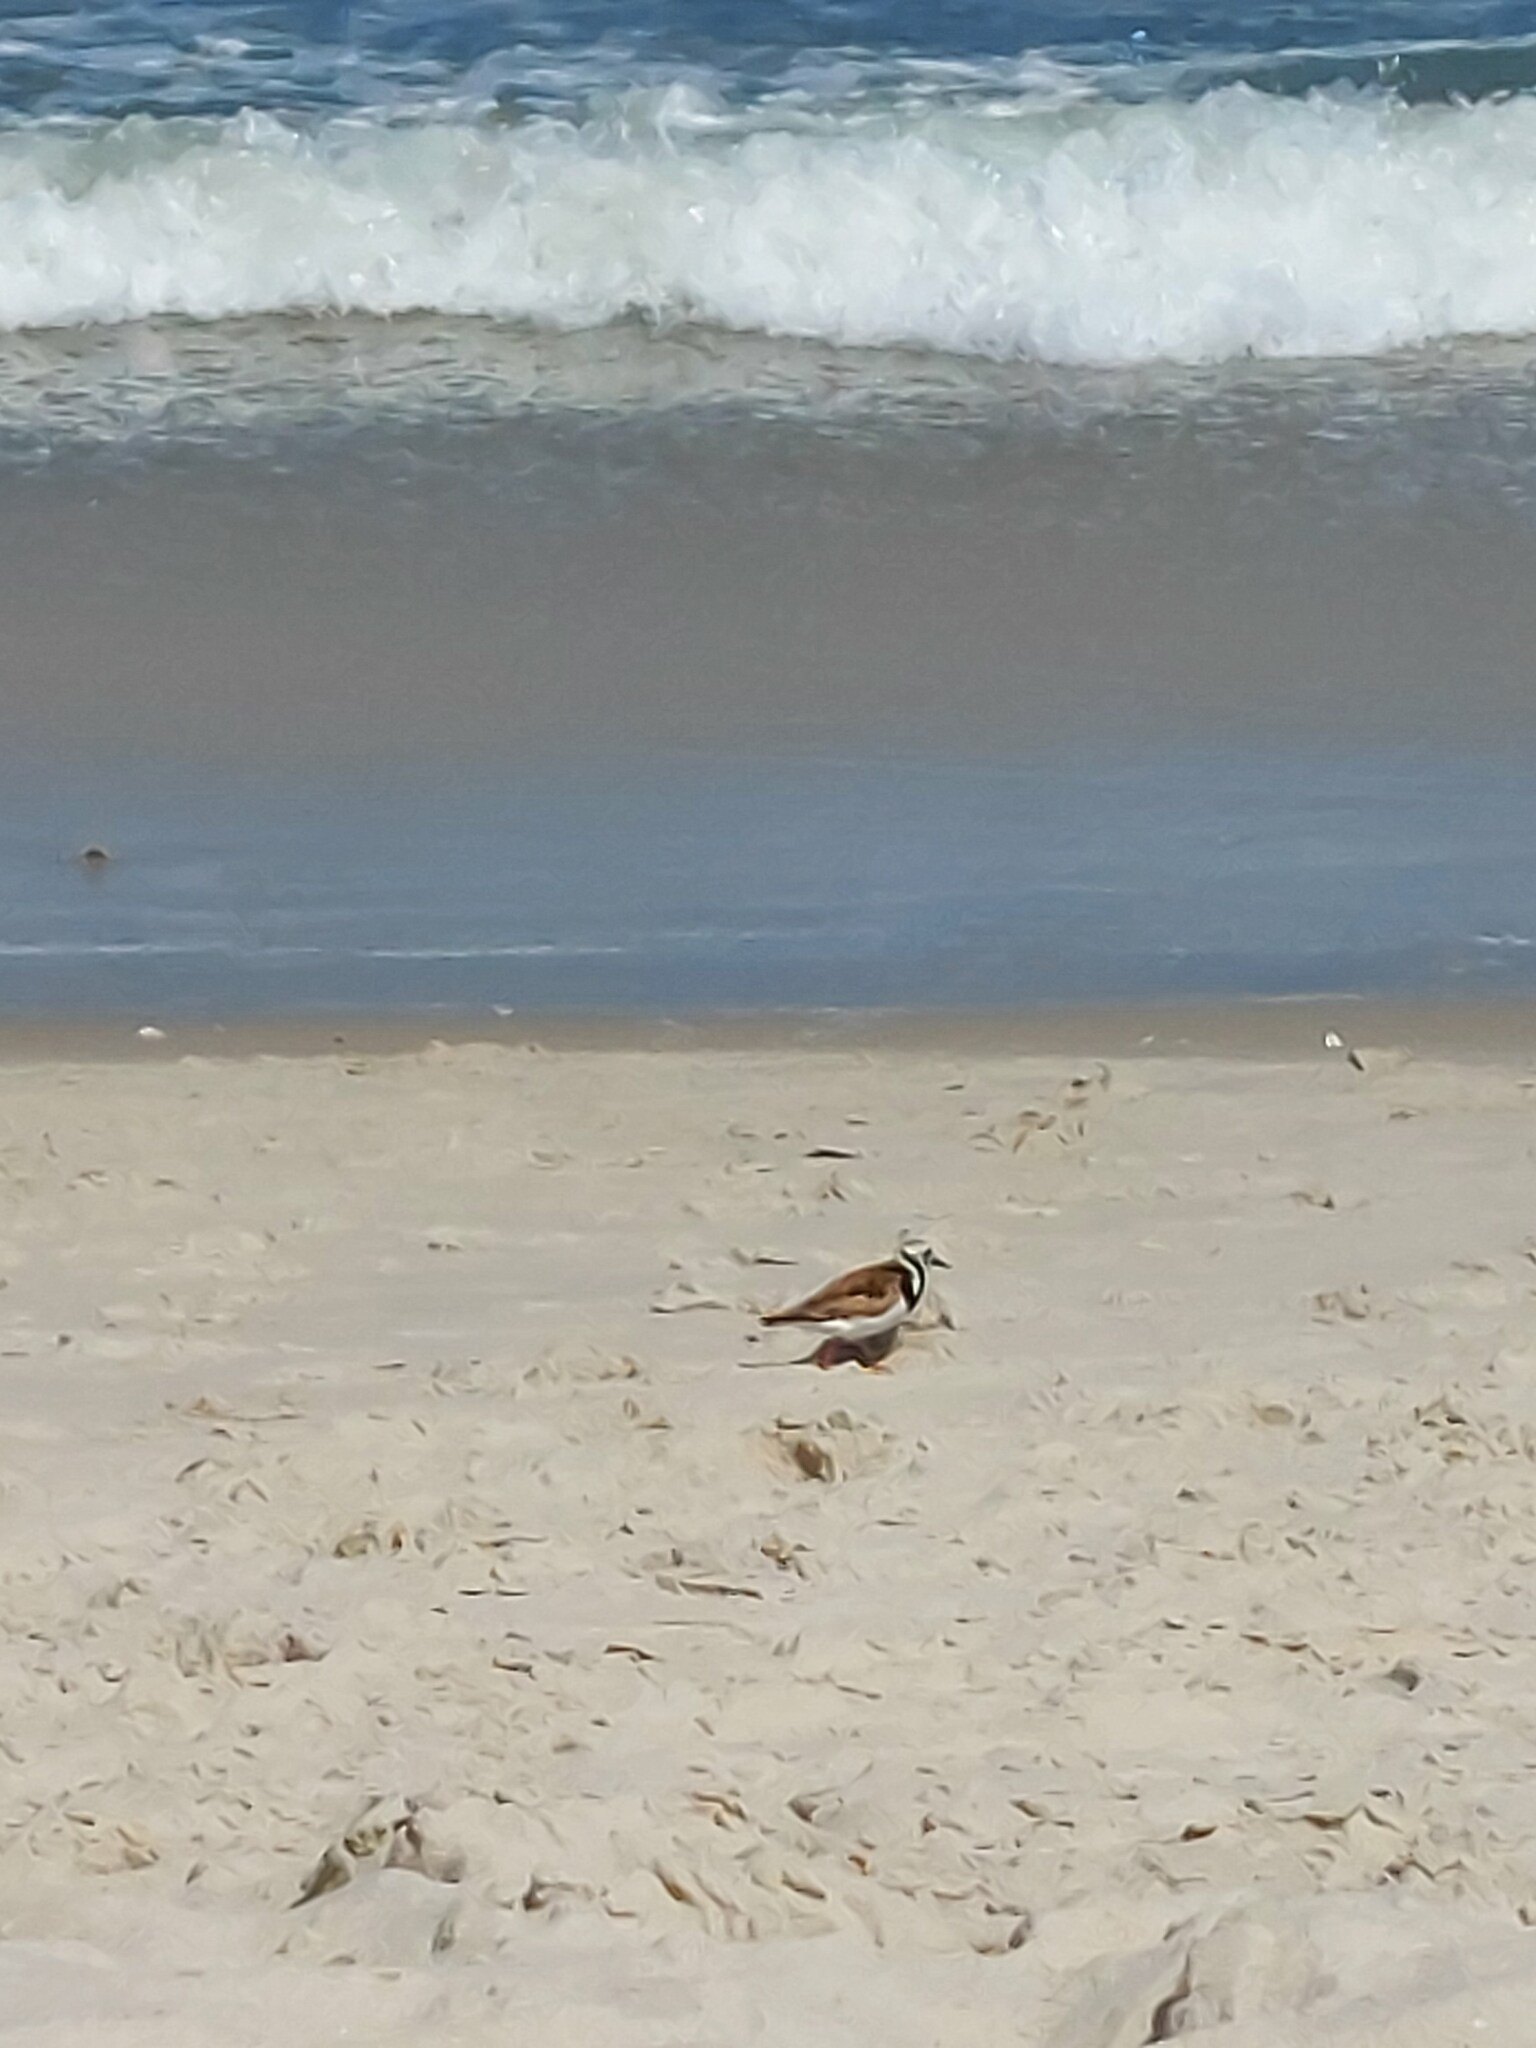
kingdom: Animalia
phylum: Chordata
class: Aves
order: Charadriiformes
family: Scolopacidae
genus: Arenaria
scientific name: Arenaria interpres
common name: Ruddy turnstone
